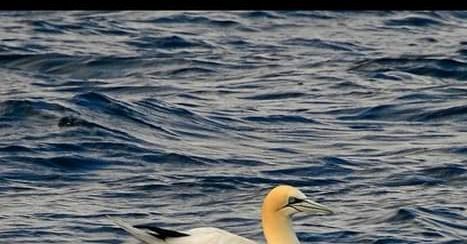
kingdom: Animalia
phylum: Chordata
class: Aves
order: Suliformes
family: Sulidae
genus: Morus
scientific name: Morus bassanus
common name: Northern gannet
